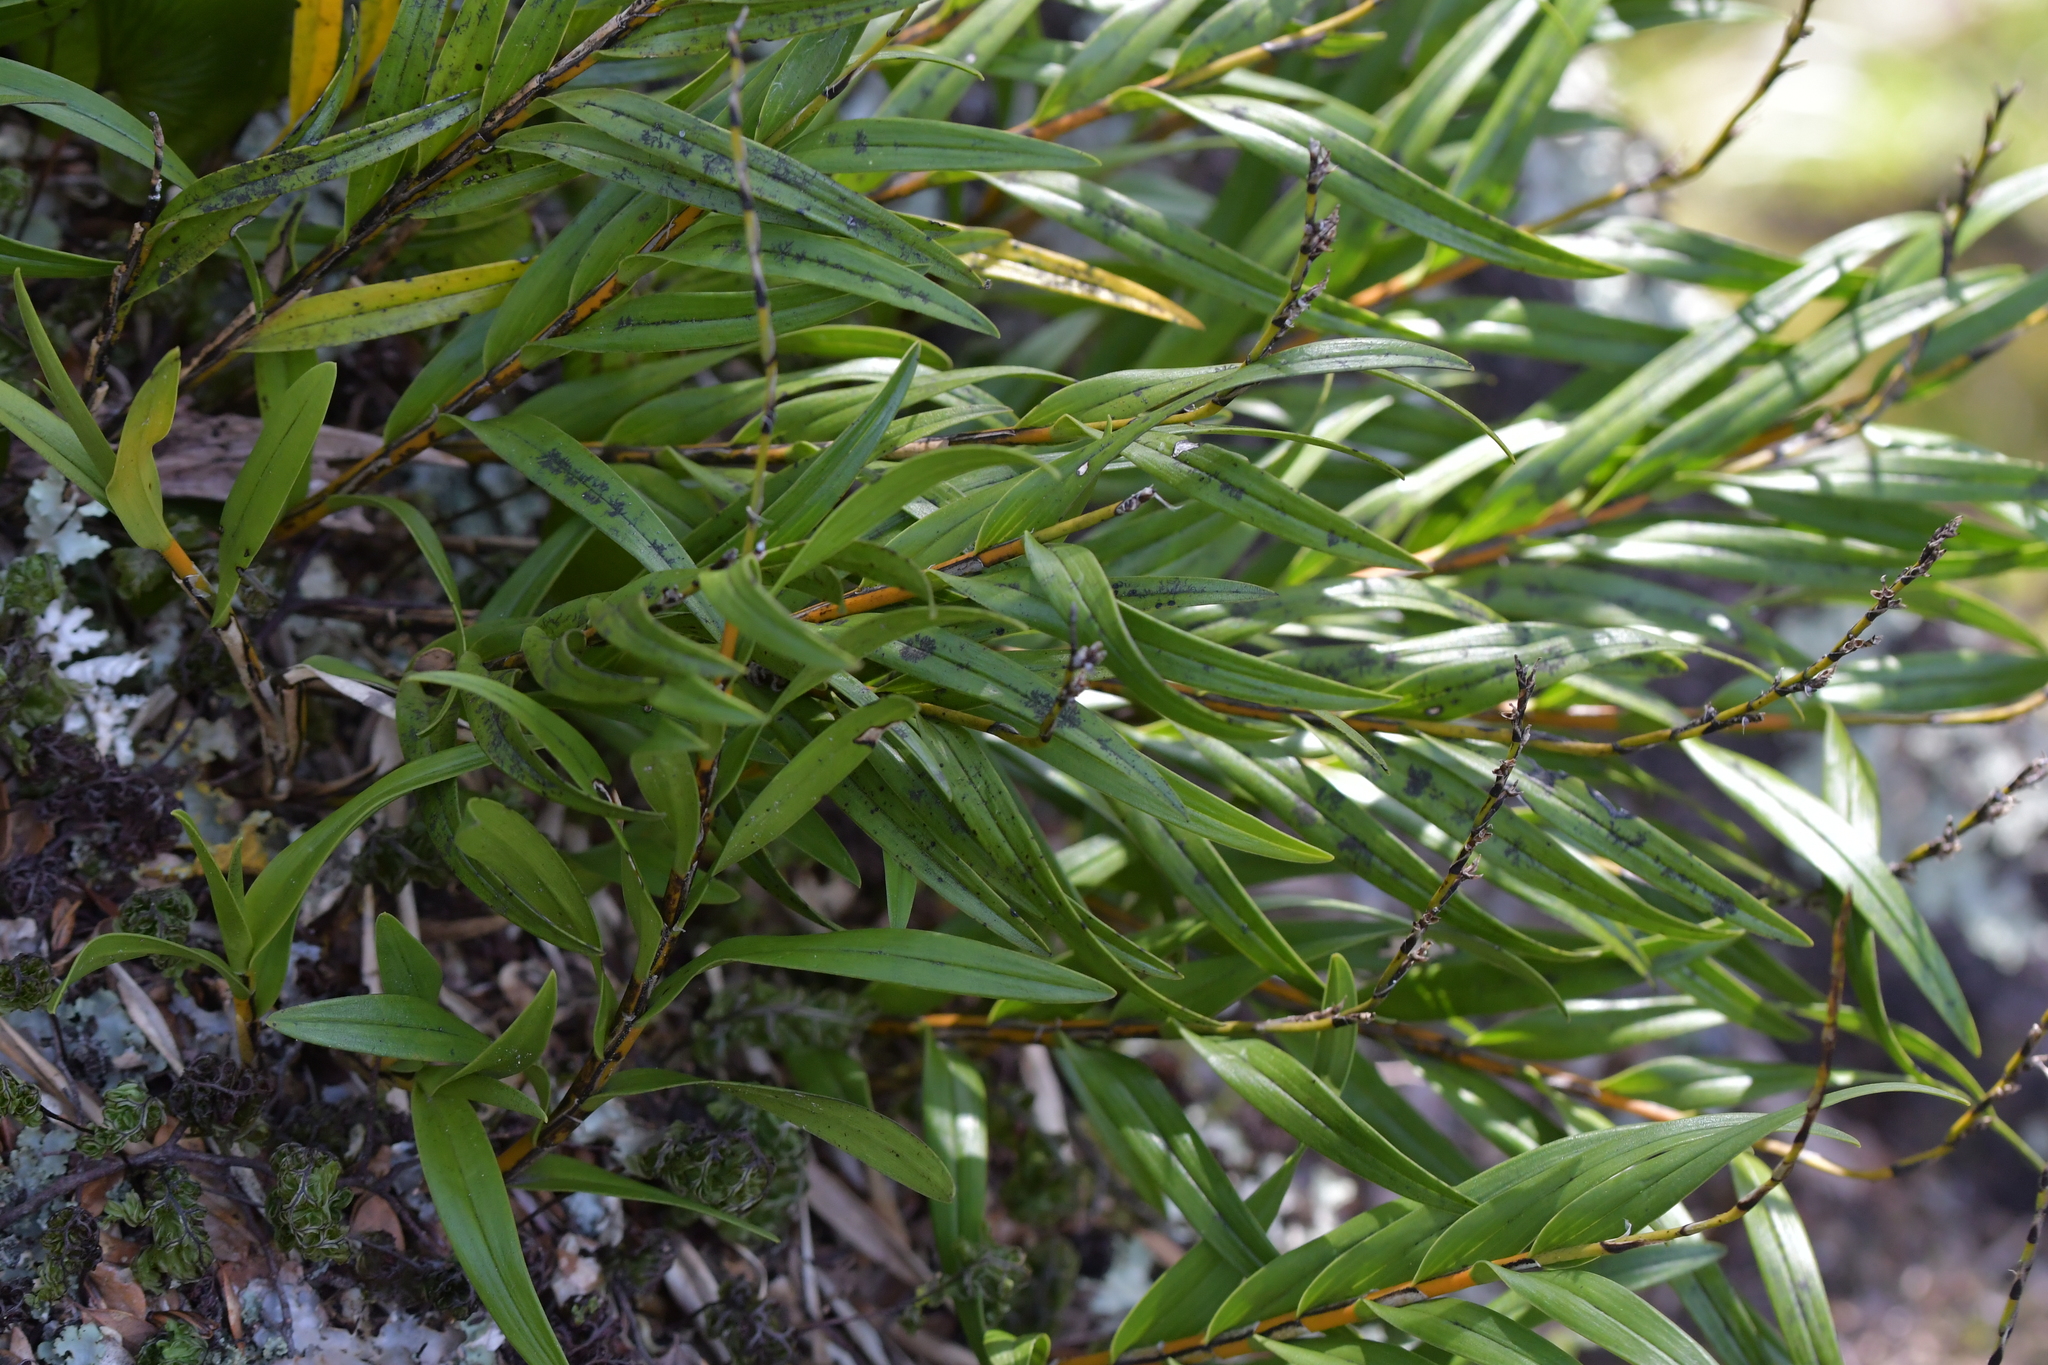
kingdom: Plantae
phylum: Tracheophyta
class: Liliopsida
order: Asparagales
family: Orchidaceae
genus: Earina
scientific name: Earina autumnalis
